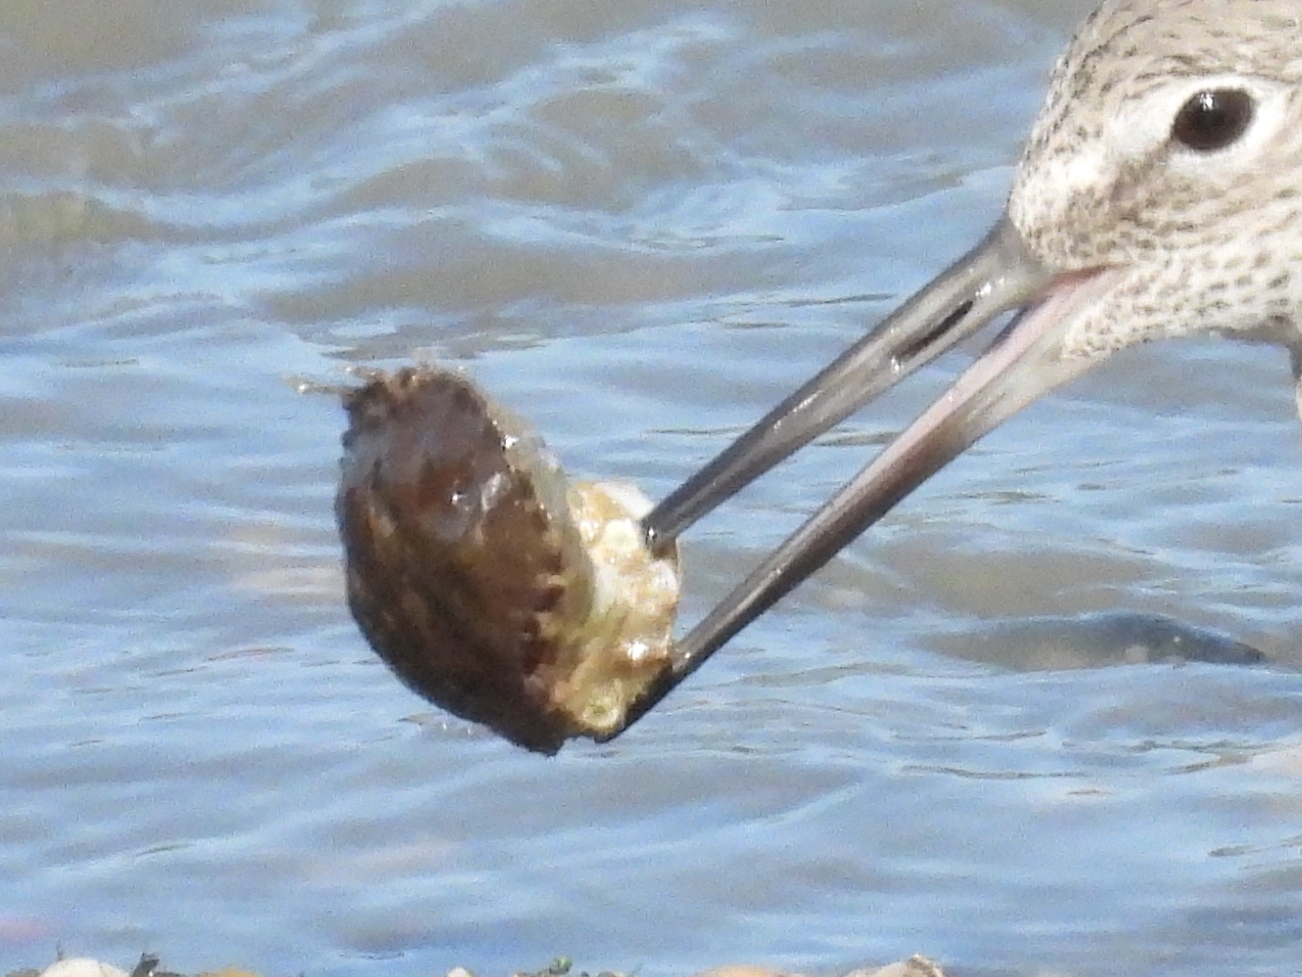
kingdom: Animalia
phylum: Arthropoda
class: Malacostraca
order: Decapoda
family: Cancridae
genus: Romaleon
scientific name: Romaleon antennarium
